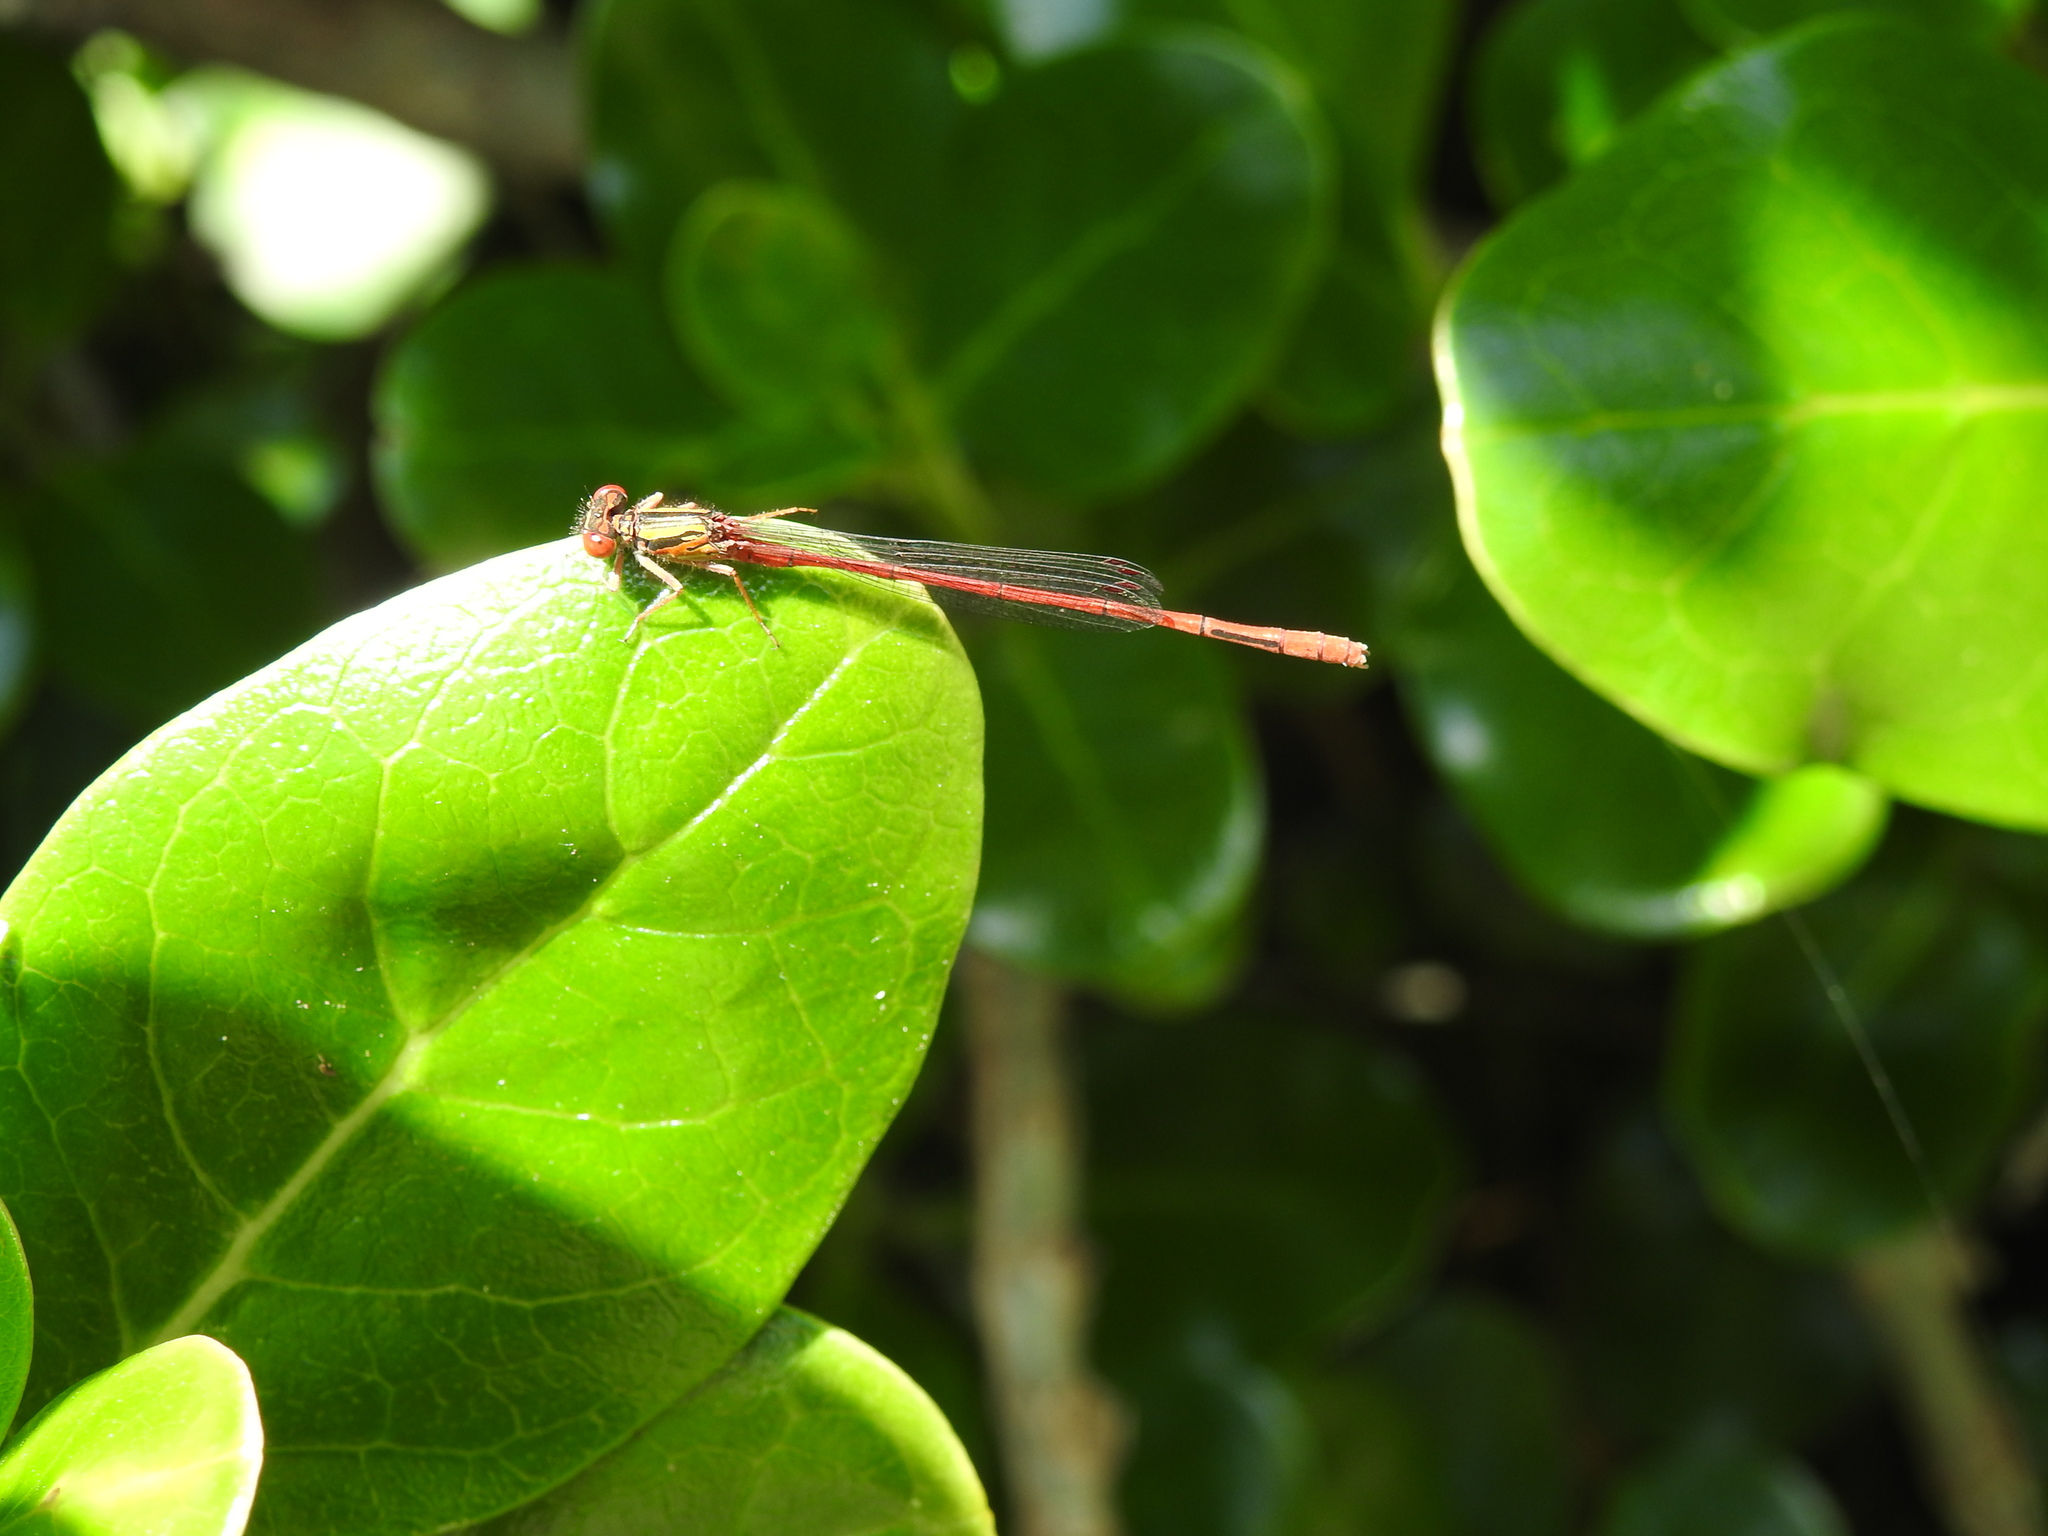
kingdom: Animalia
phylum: Arthropoda
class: Insecta
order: Odonata
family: Coenagrionidae
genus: Xanthocnemis
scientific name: Xanthocnemis zealandica
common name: Common redcoat damselfly
